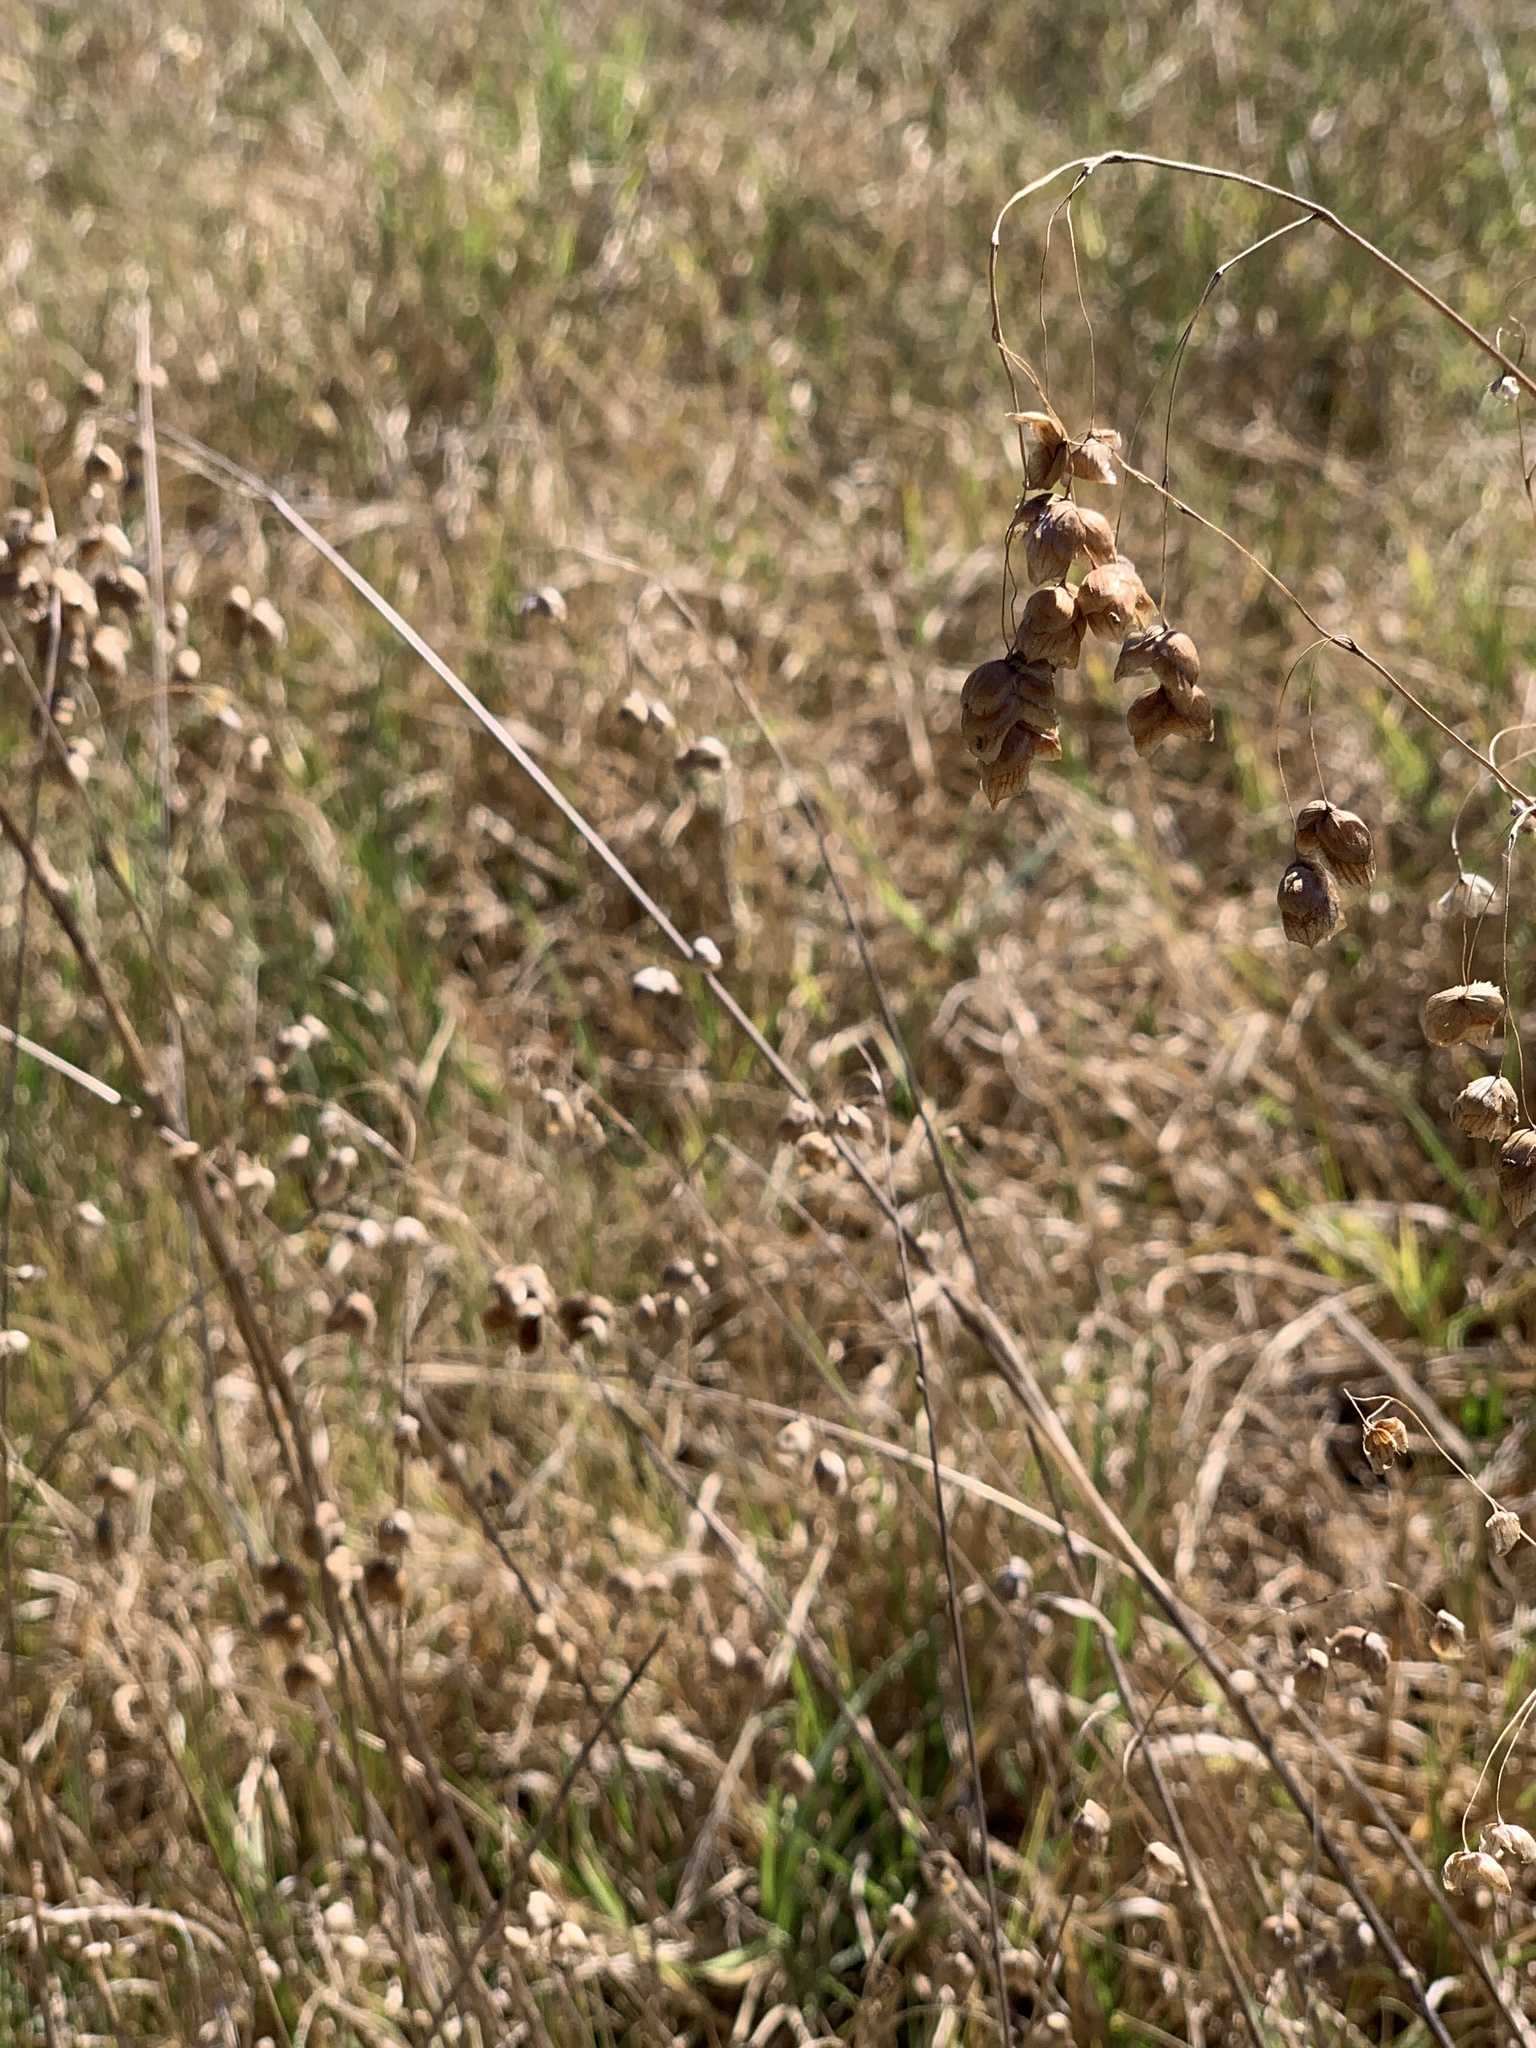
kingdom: Plantae
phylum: Tracheophyta
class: Liliopsida
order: Poales
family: Poaceae
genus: Briza
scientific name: Briza maxima
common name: Big quakinggrass
